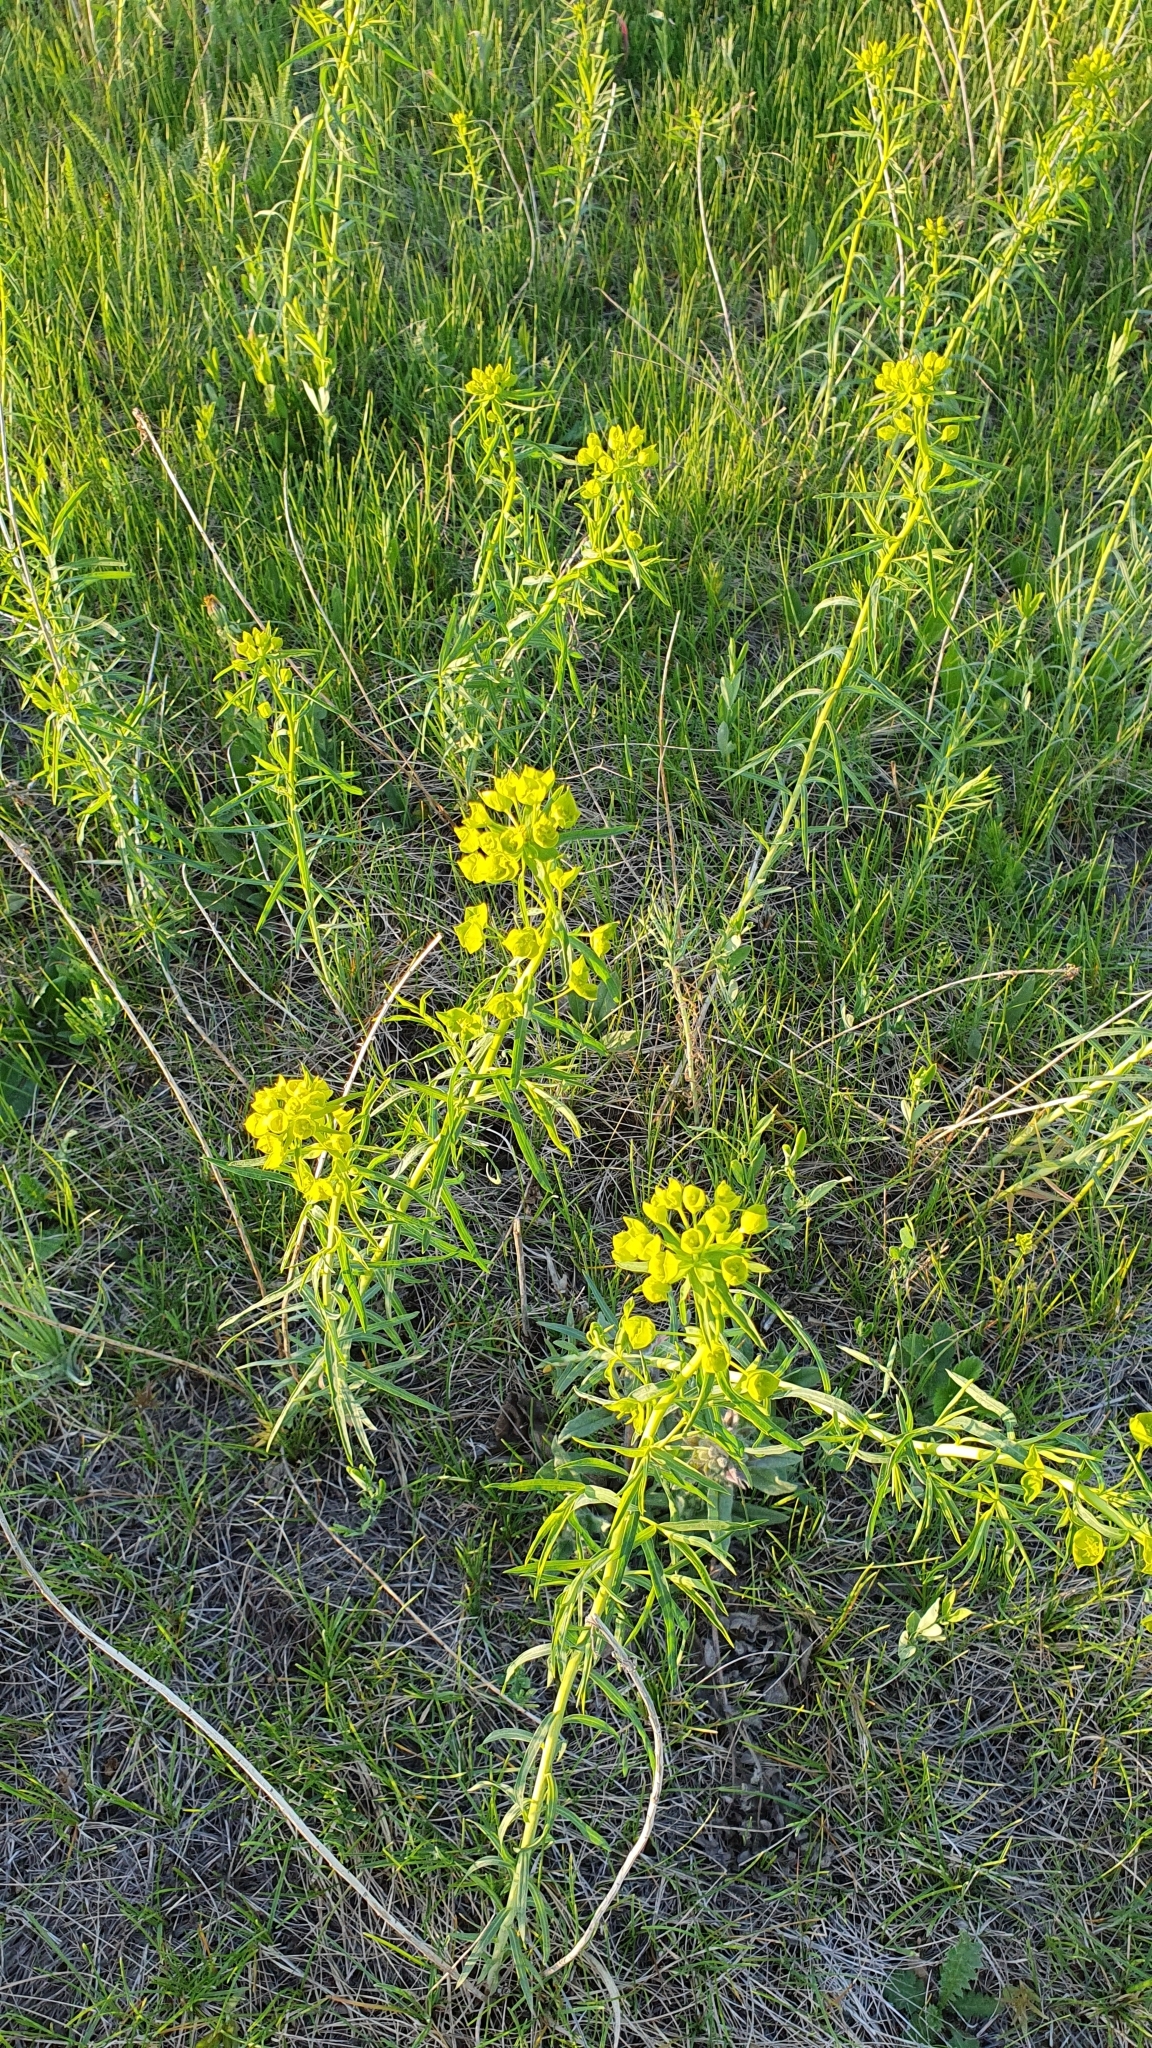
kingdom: Plantae
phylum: Tracheophyta
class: Magnoliopsida
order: Malpighiales
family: Euphorbiaceae
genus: Euphorbia
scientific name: Euphorbia virgata
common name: Leafy spurge
